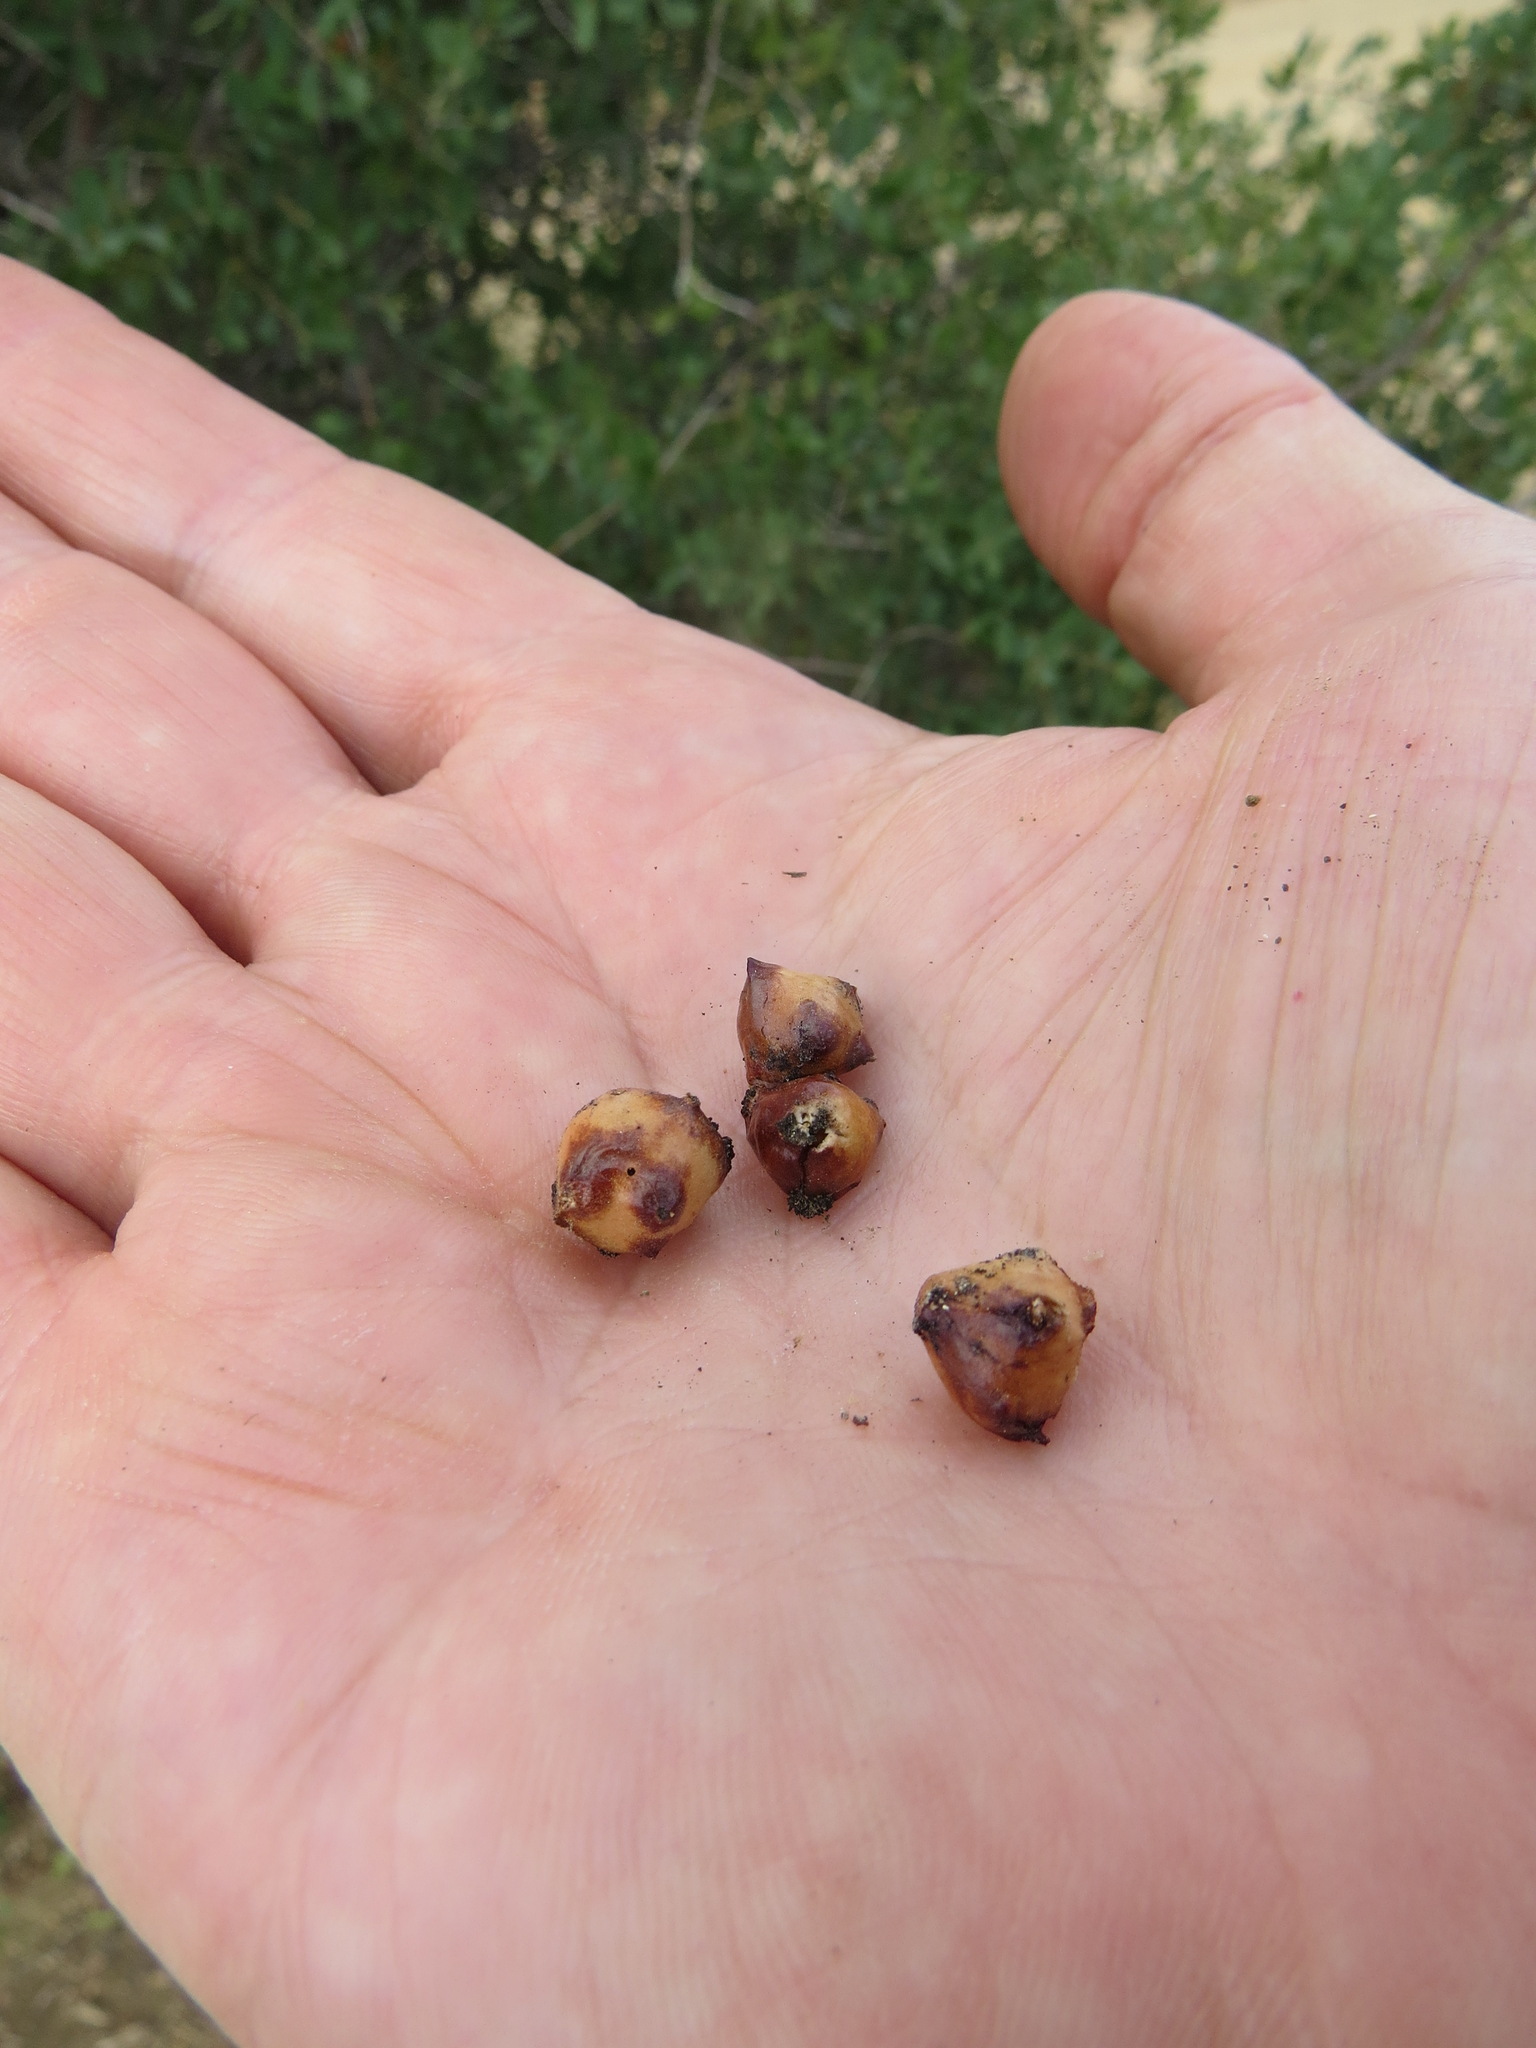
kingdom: Animalia
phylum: Arthropoda
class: Insecta
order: Hymenoptera
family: Cynipidae
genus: Cynips
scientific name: Cynips douglasi
